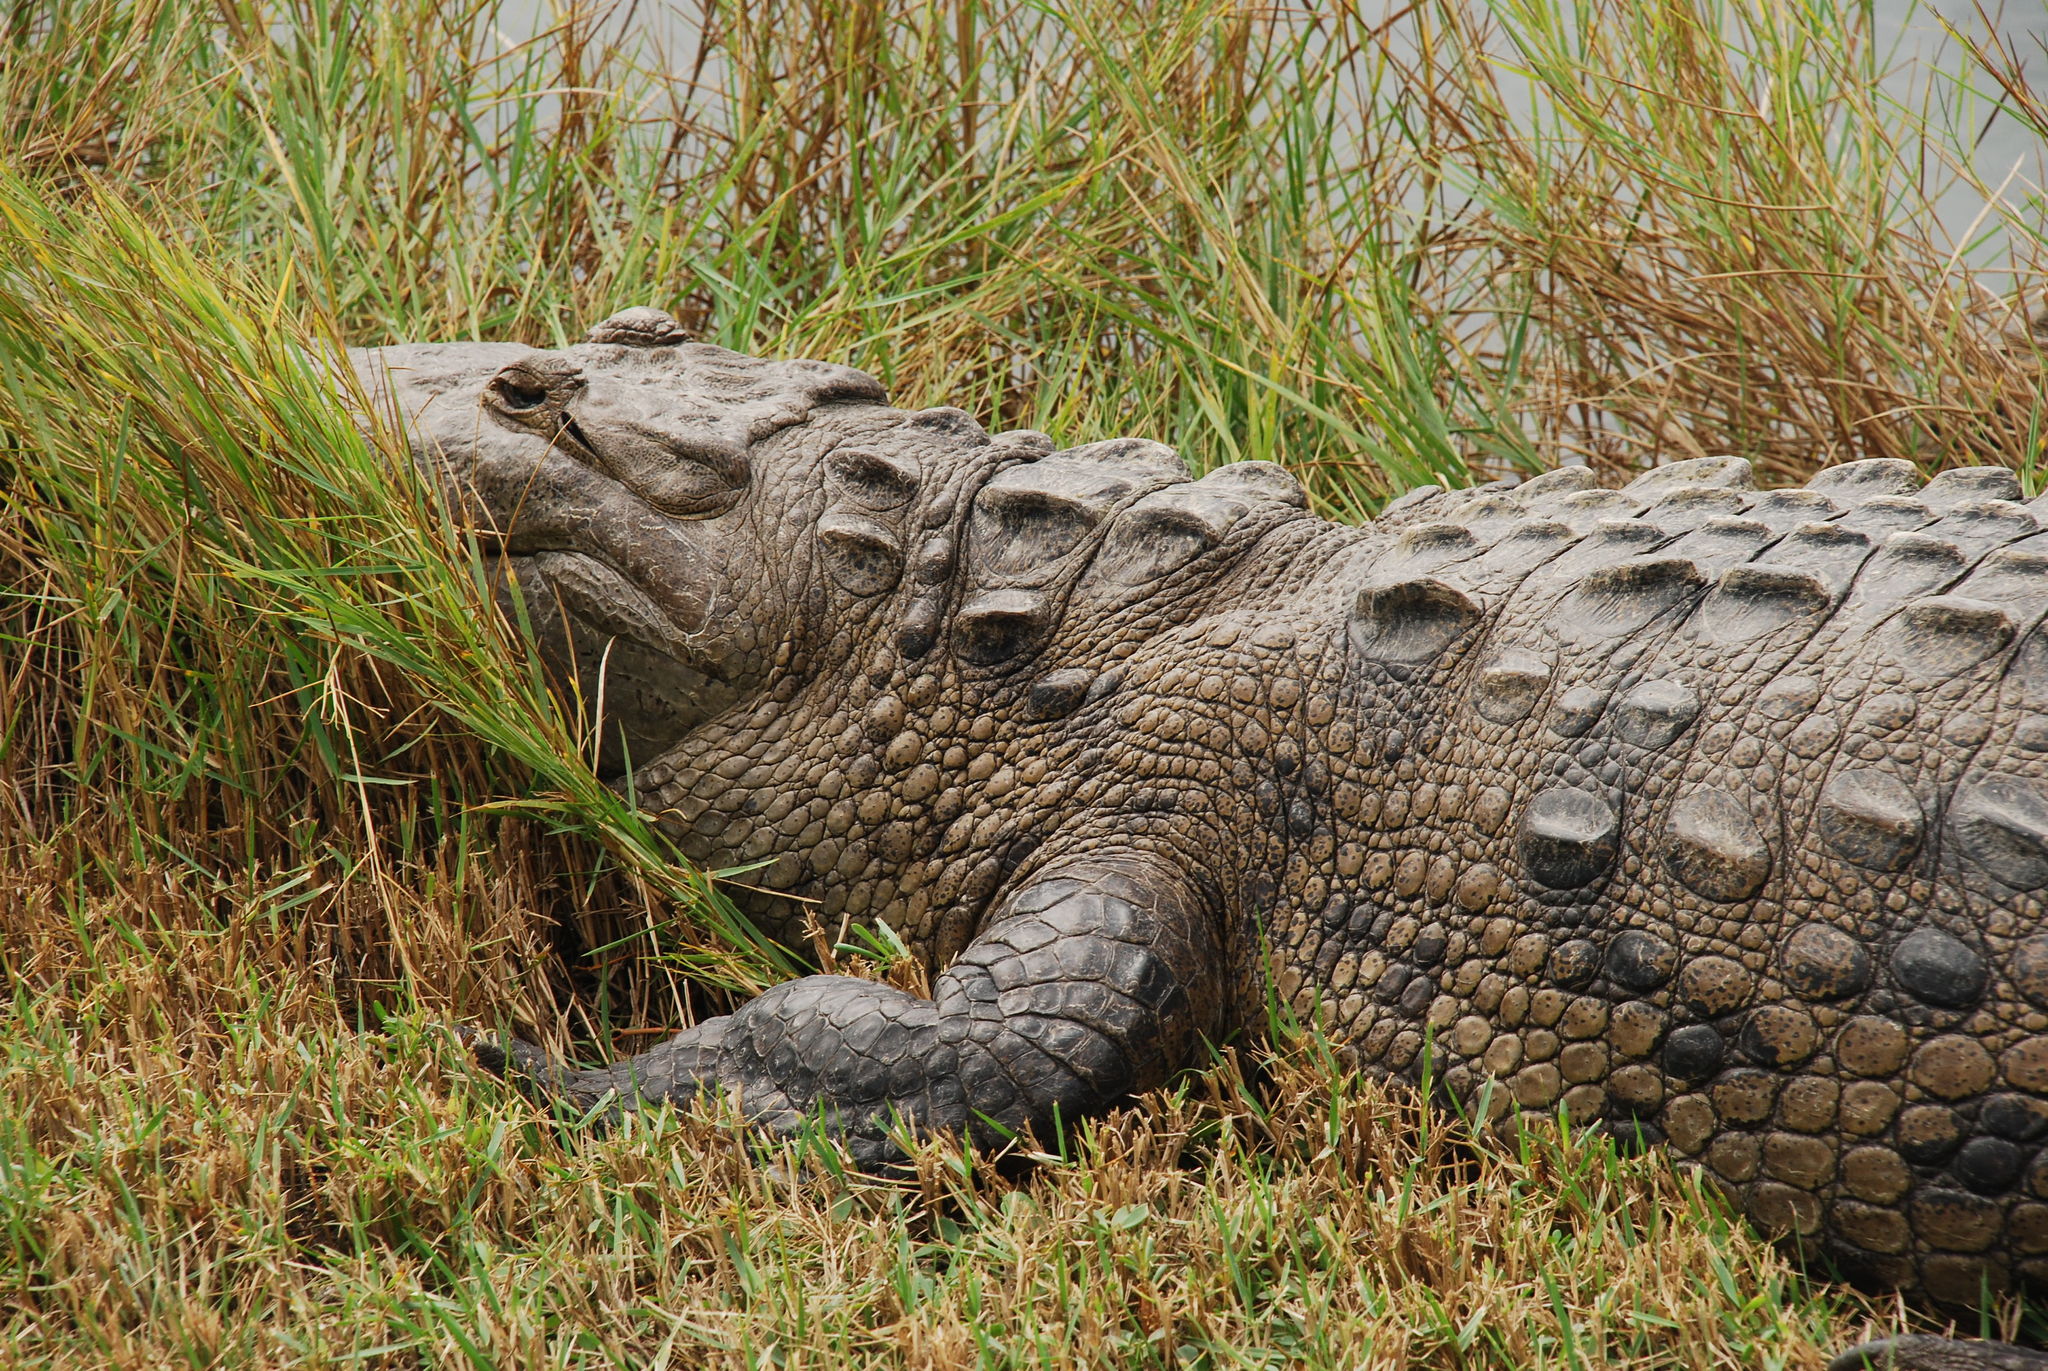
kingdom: Animalia
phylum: Chordata
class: Crocodylia
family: Crocodylidae
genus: Crocodylus
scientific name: Crocodylus acutus
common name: American crocodile
